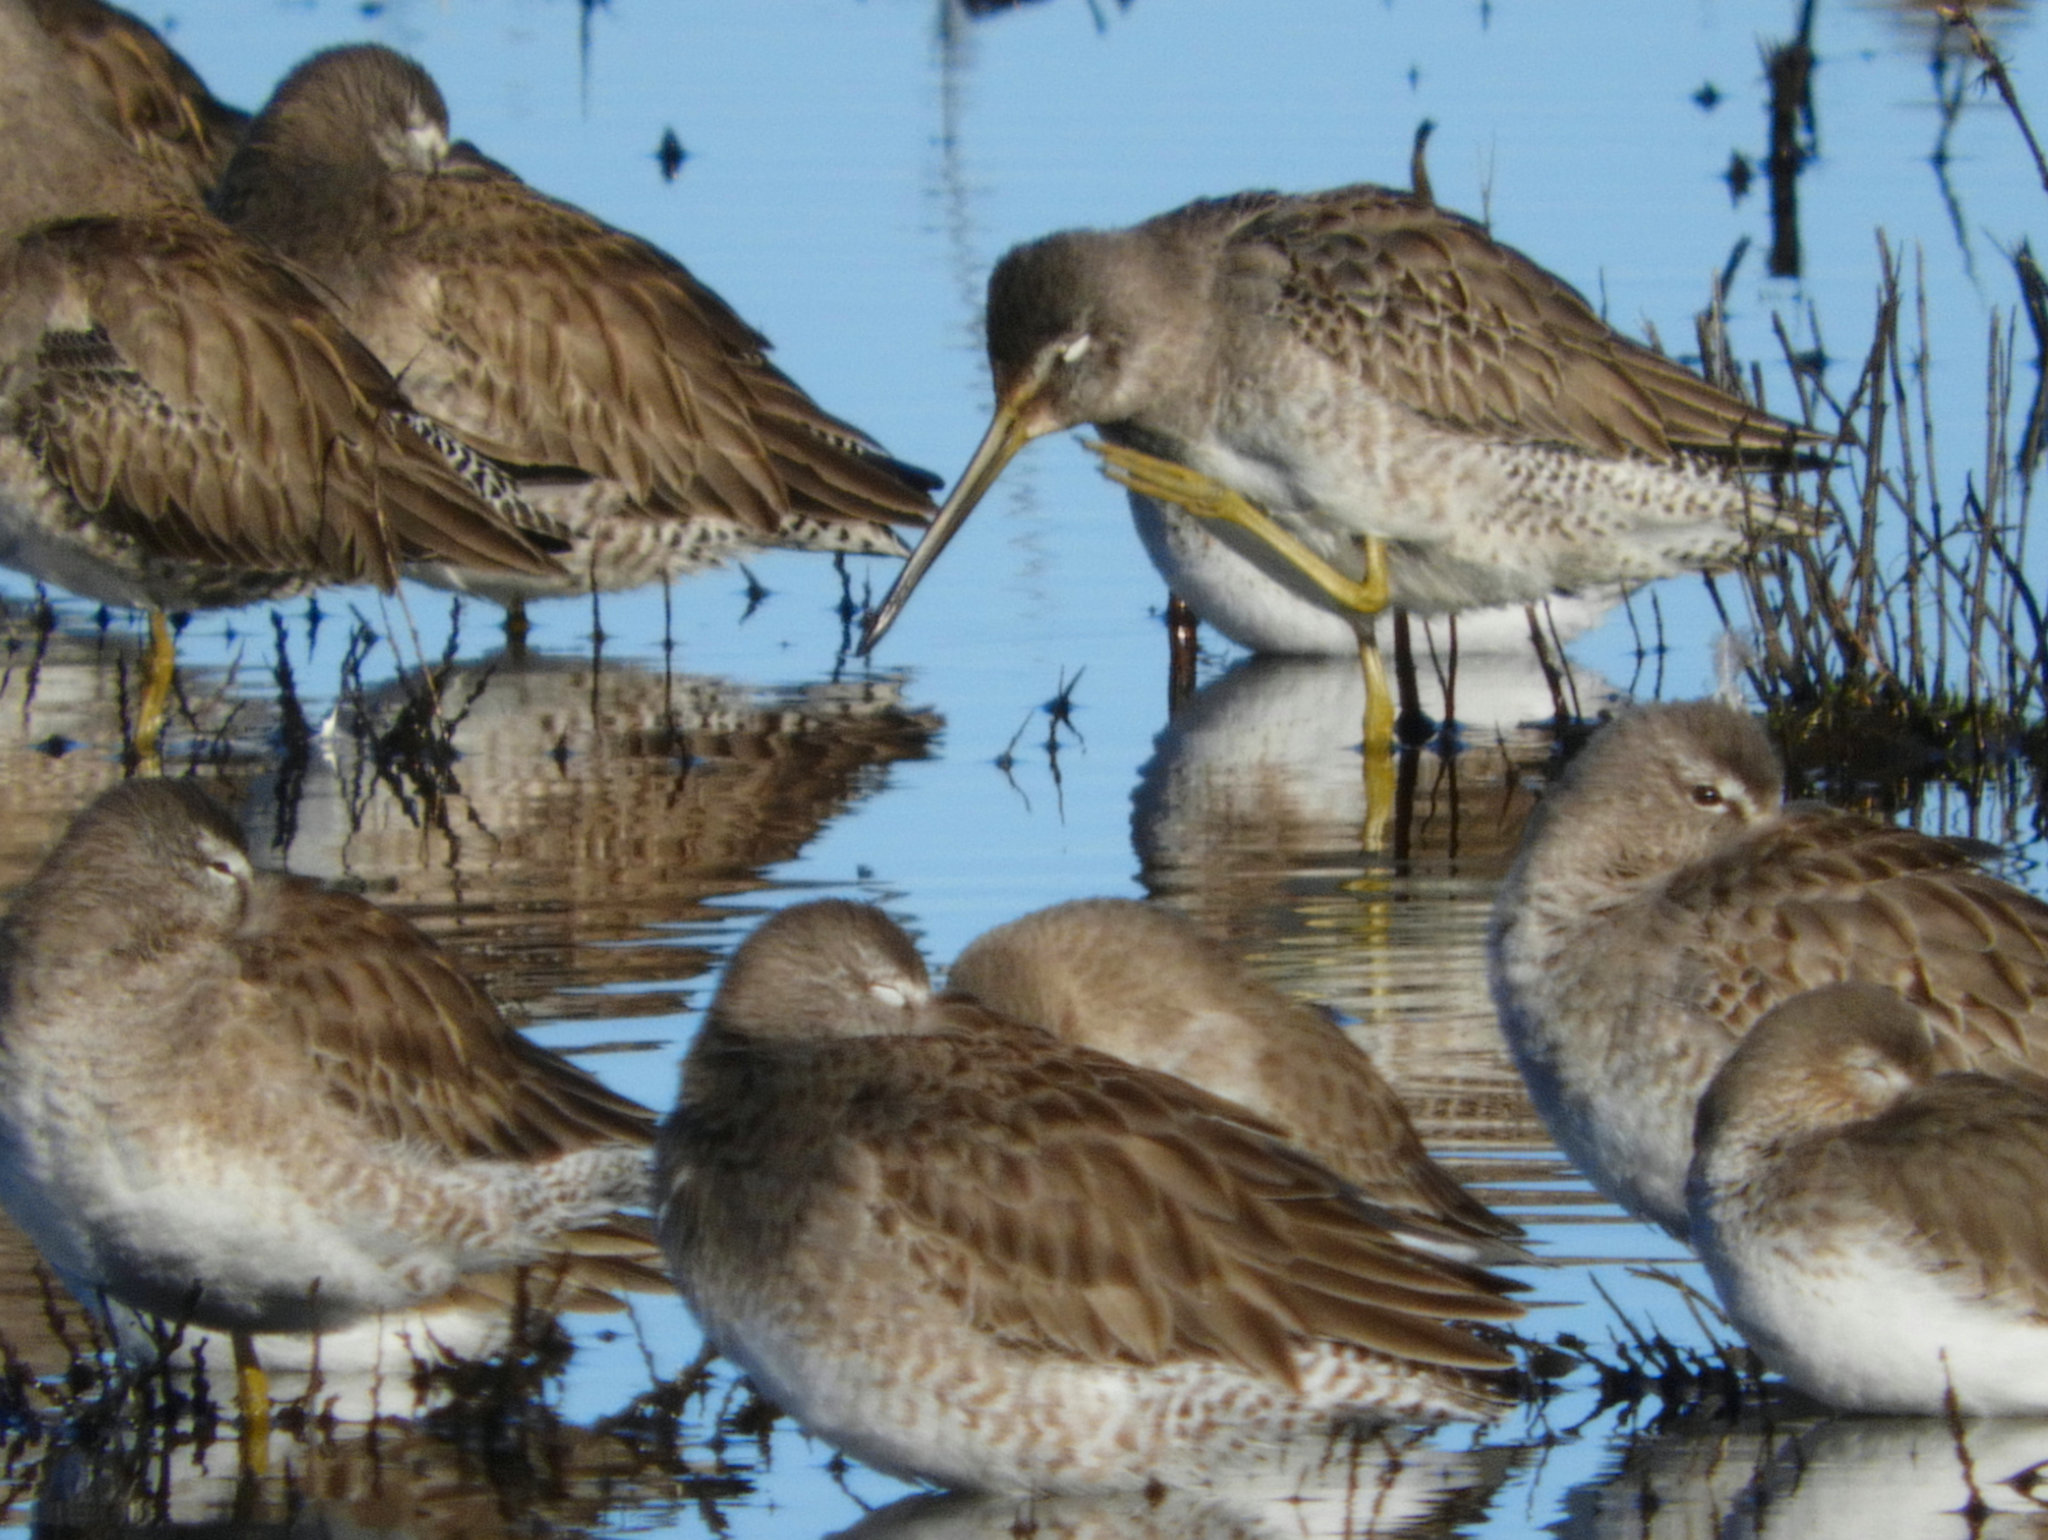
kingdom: Animalia
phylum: Chordata
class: Aves
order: Charadriiformes
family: Scolopacidae
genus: Limnodromus
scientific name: Limnodromus scolopaceus
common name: Long-billed dowitcher
